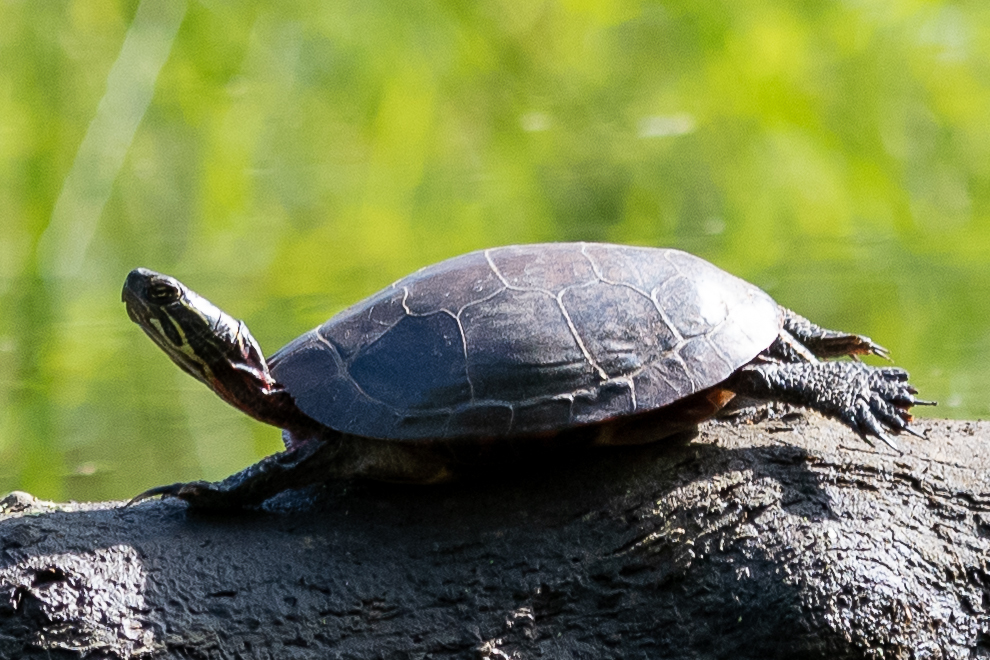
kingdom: Animalia
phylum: Chordata
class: Testudines
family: Emydidae
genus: Chrysemys
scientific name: Chrysemys picta
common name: Painted turtle
